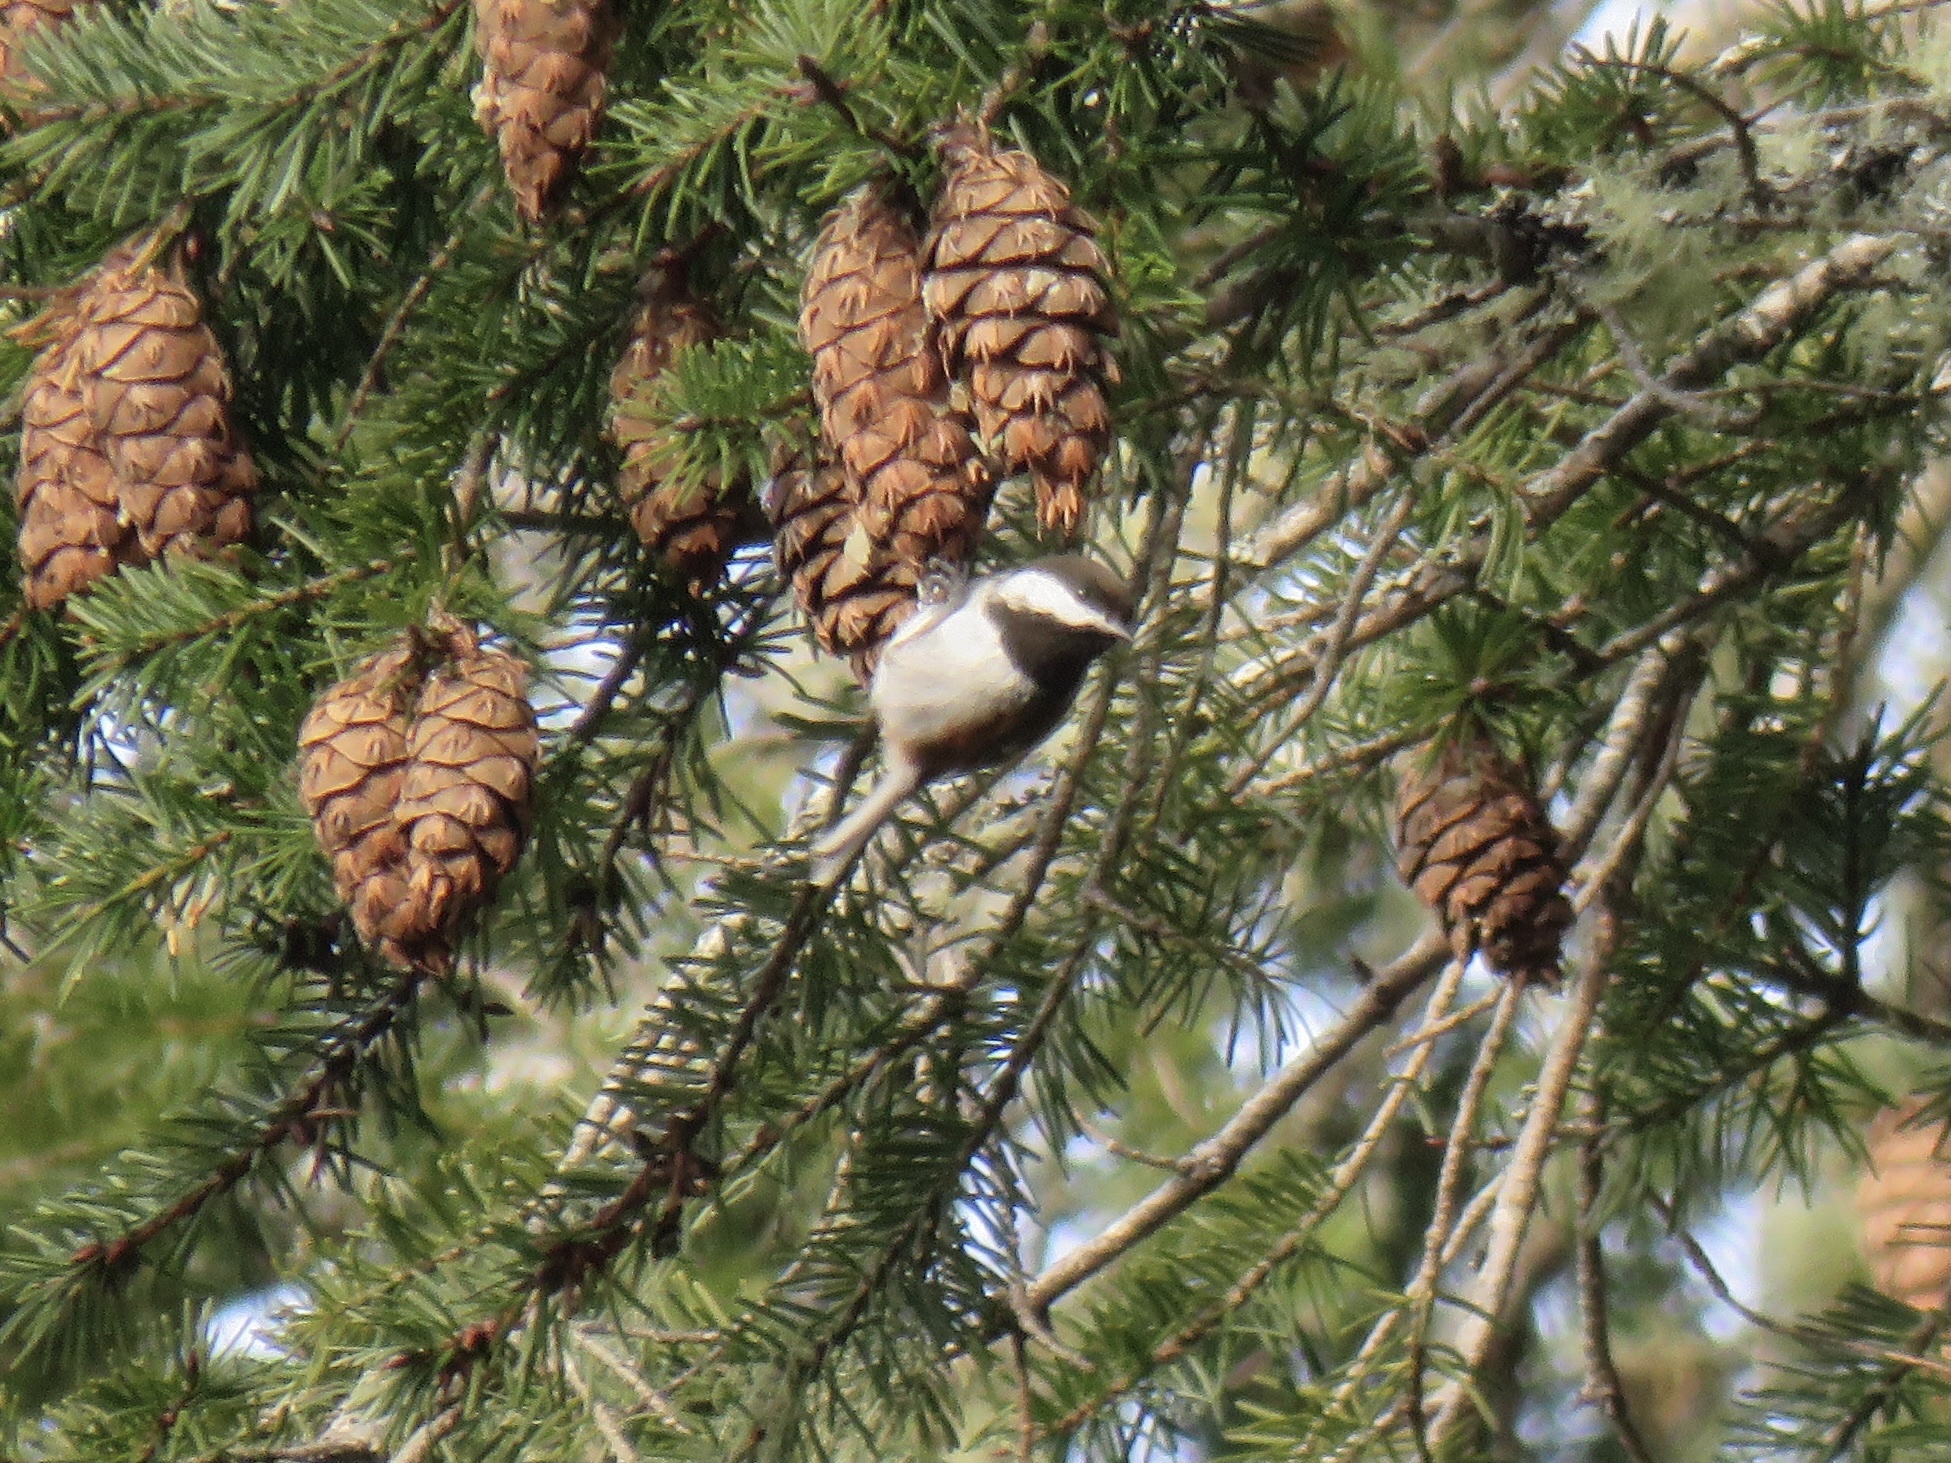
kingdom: Animalia
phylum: Chordata
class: Aves
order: Passeriformes
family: Paridae
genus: Poecile
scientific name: Poecile rufescens
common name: Chestnut-backed chickadee
